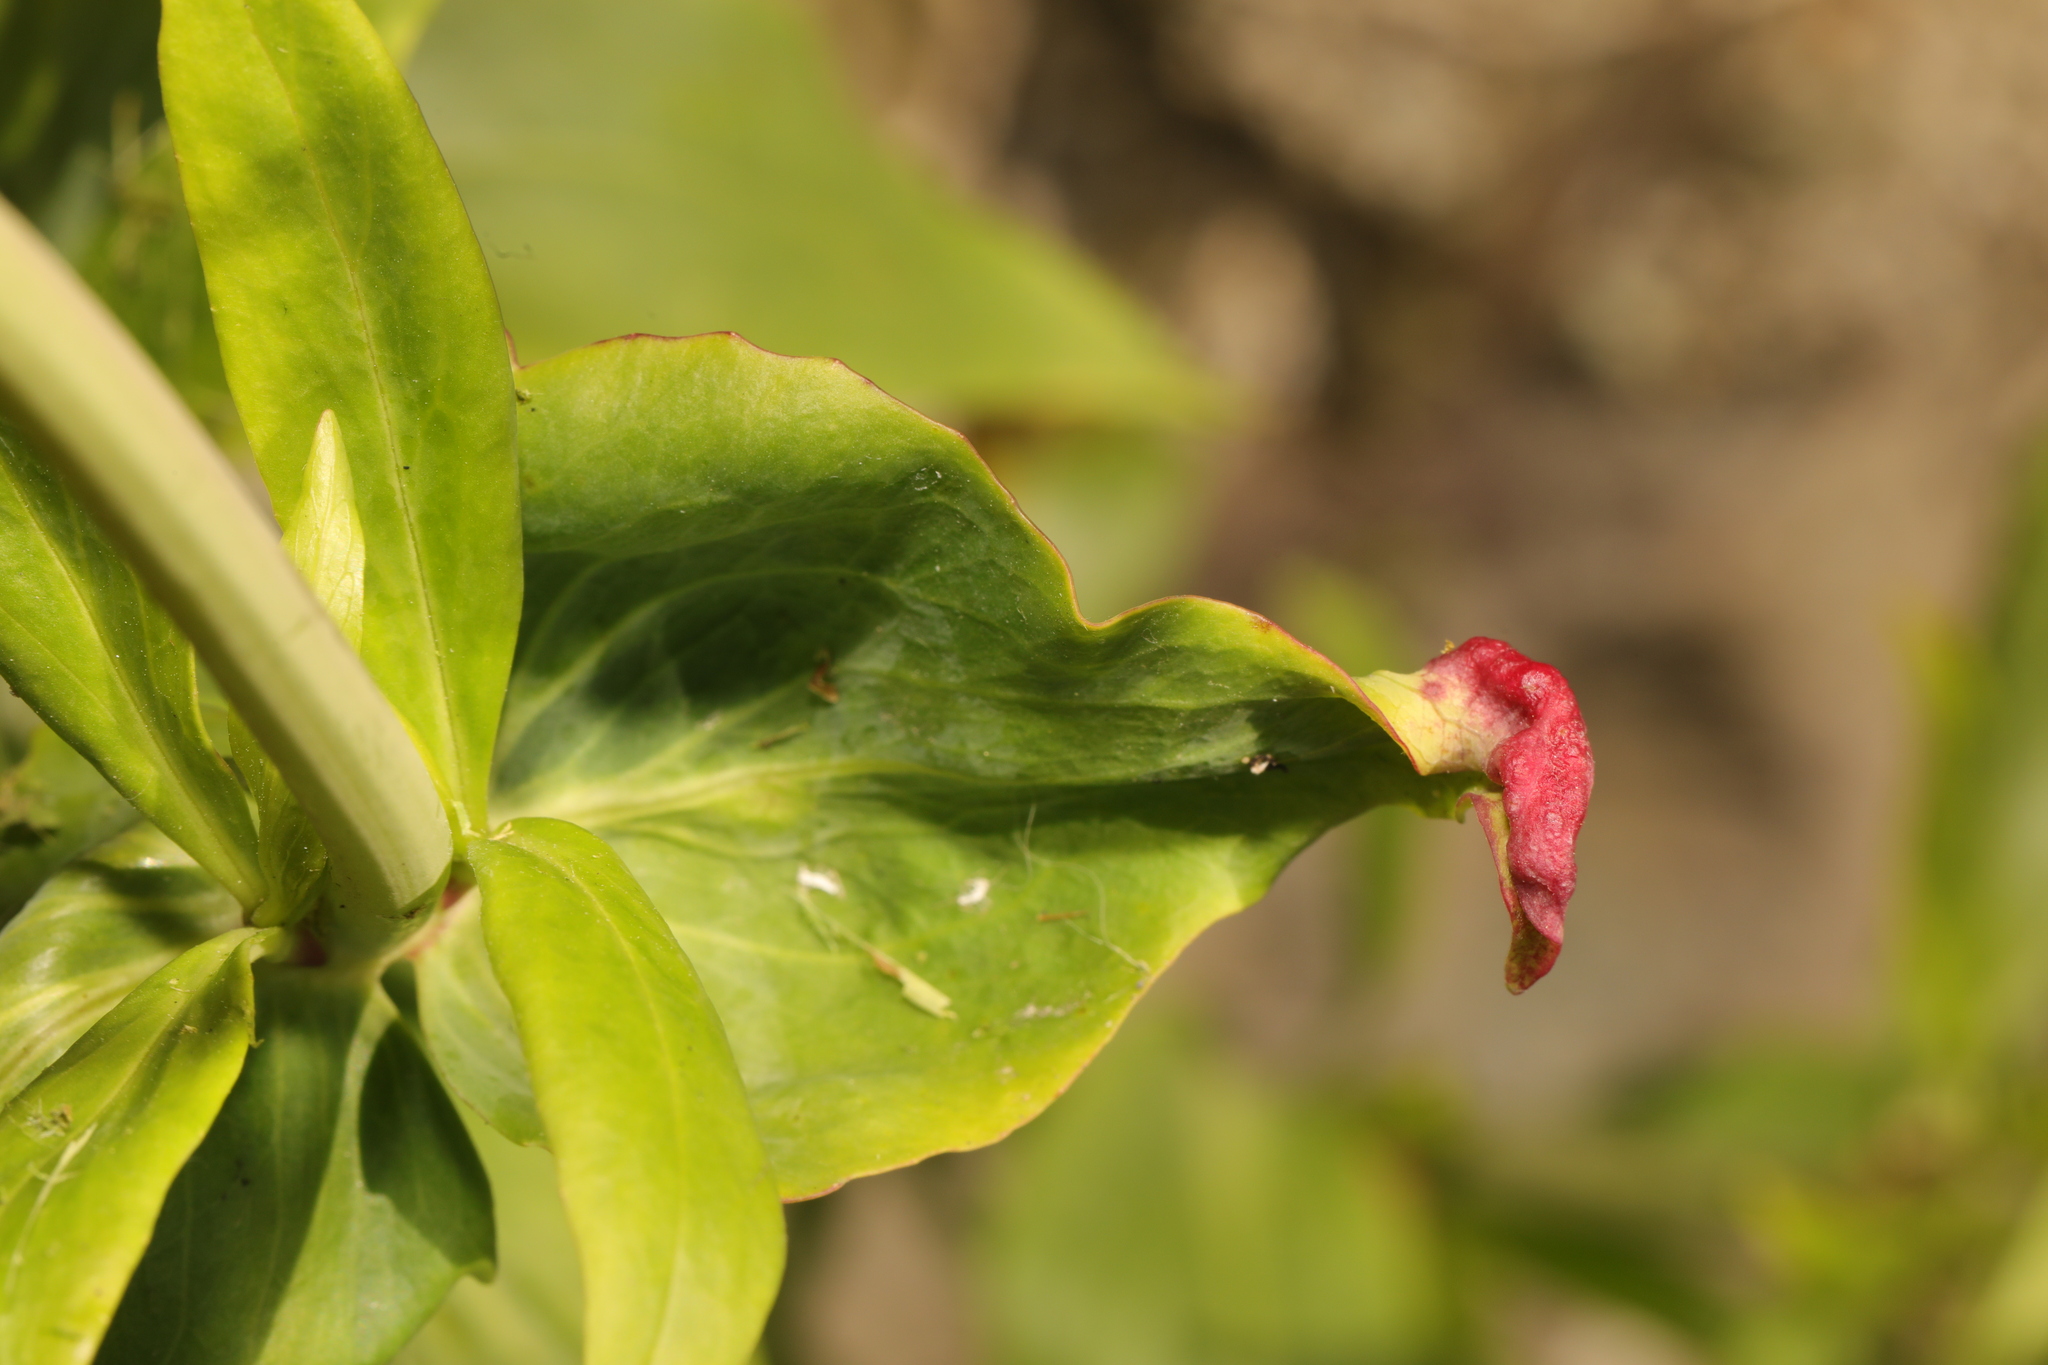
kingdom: Animalia
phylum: Arthropoda
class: Insecta
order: Hemiptera
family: Triozidae
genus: Trioza
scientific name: Trioza centranthi
